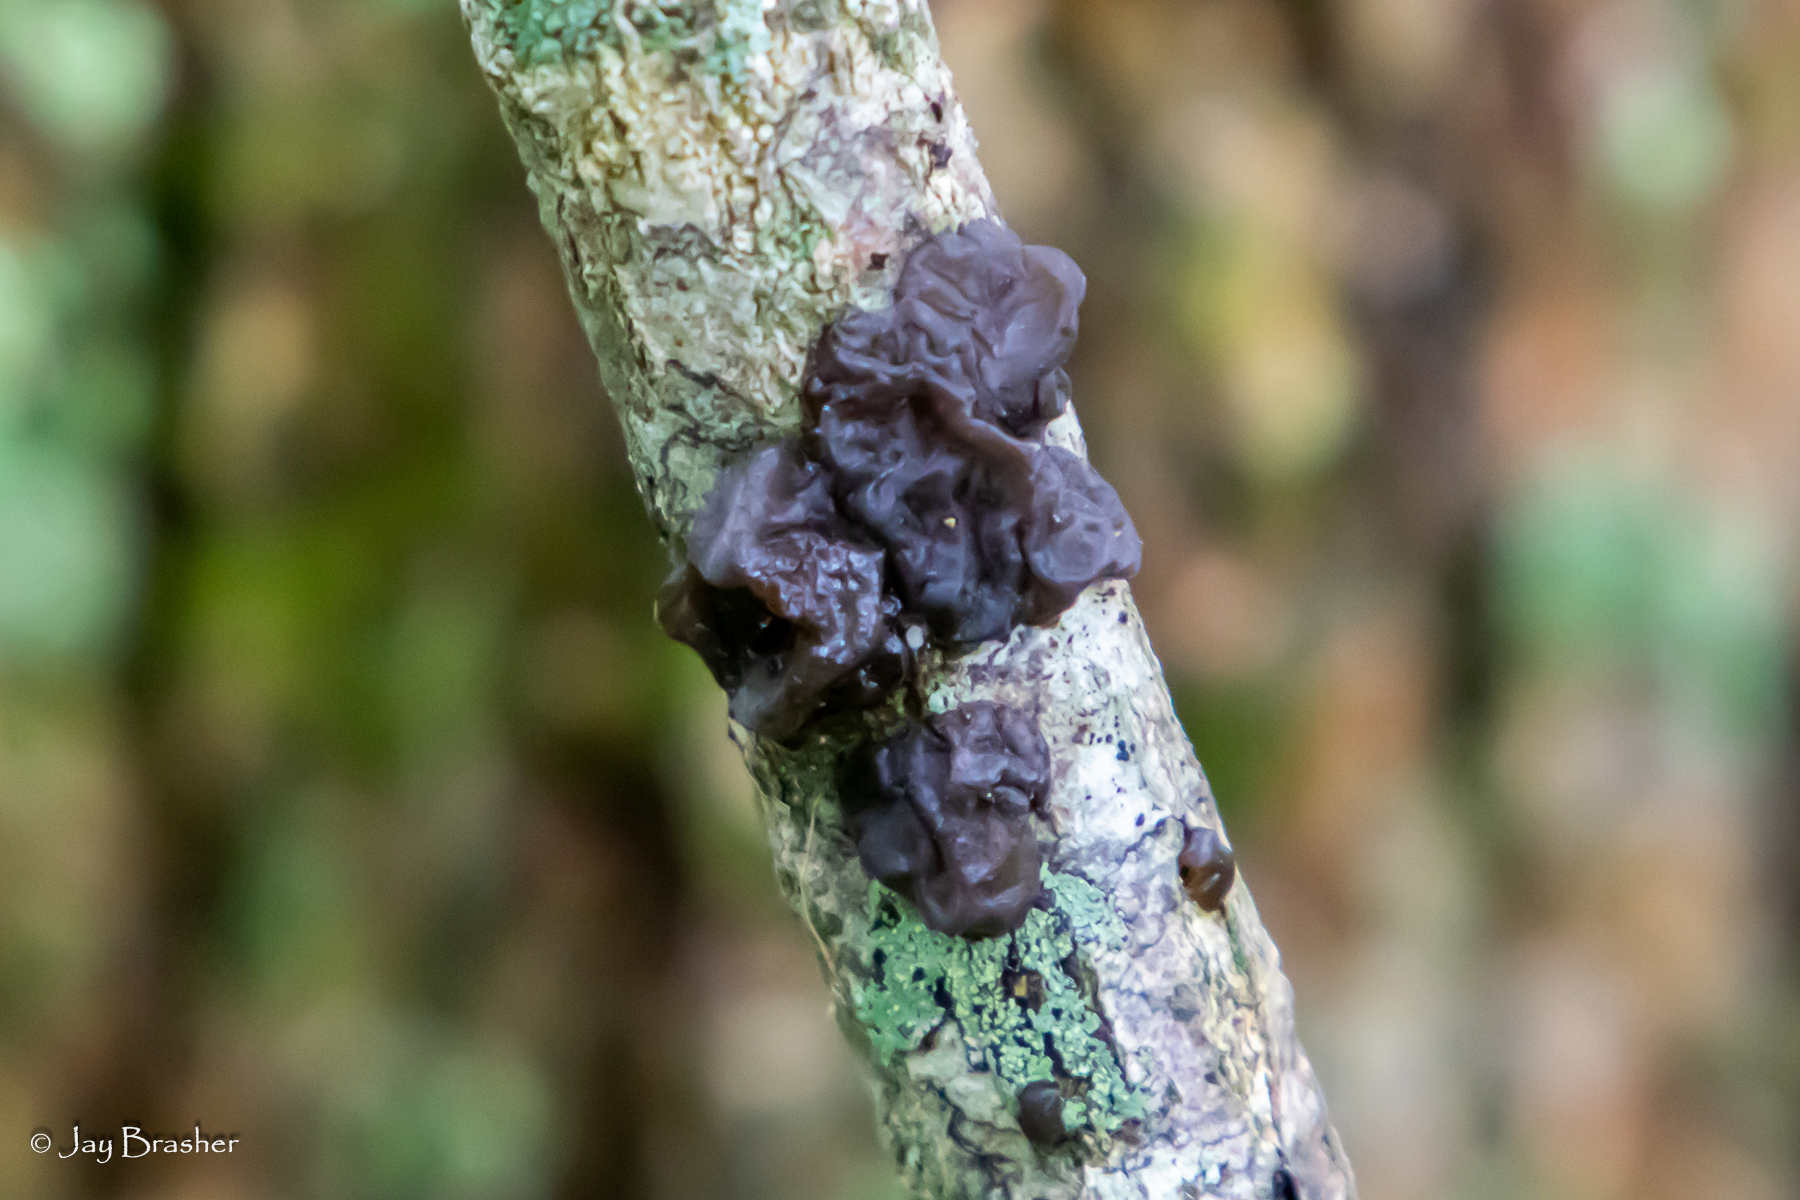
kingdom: Fungi
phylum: Basidiomycota
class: Agaricomycetes
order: Auriculariales
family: Auriculariaceae
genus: Exidia
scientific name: Exidia
